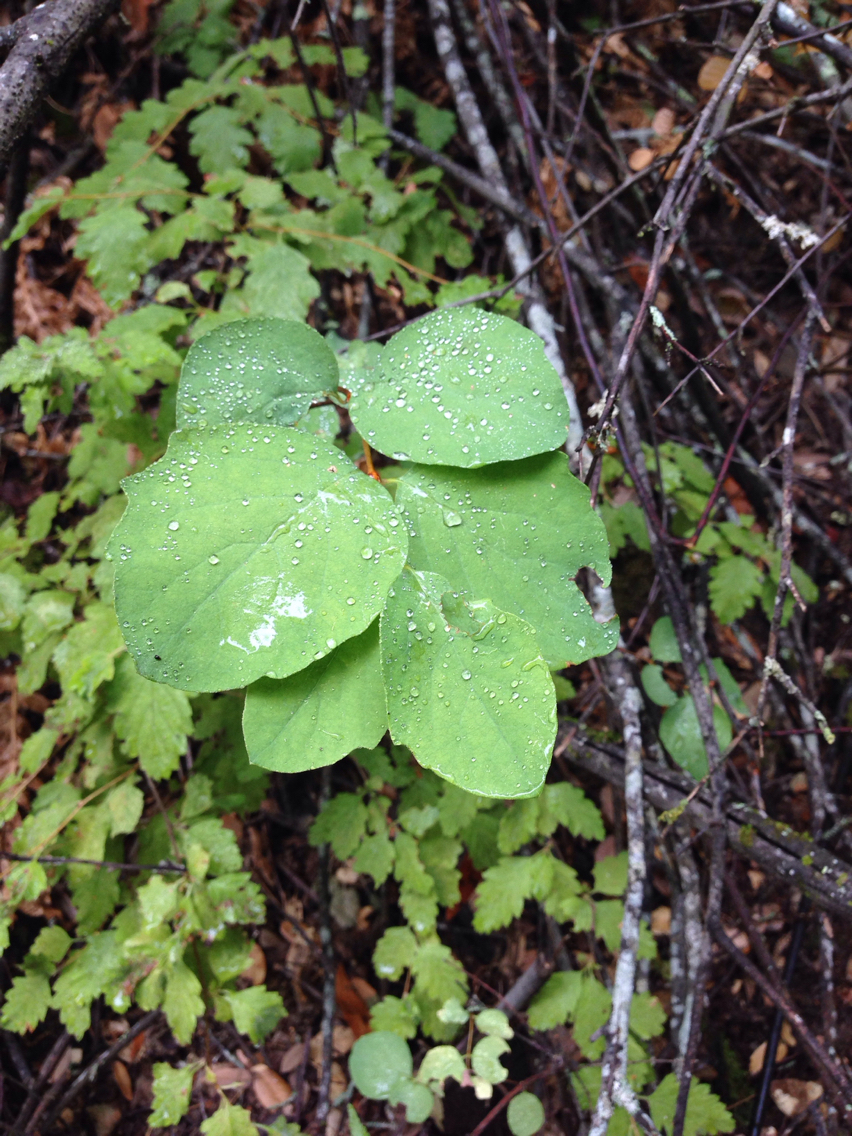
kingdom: Plantae
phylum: Tracheophyta
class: Magnoliopsida
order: Dipsacales
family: Caprifoliaceae
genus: Symphoricarpos
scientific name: Symphoricarpos albus
